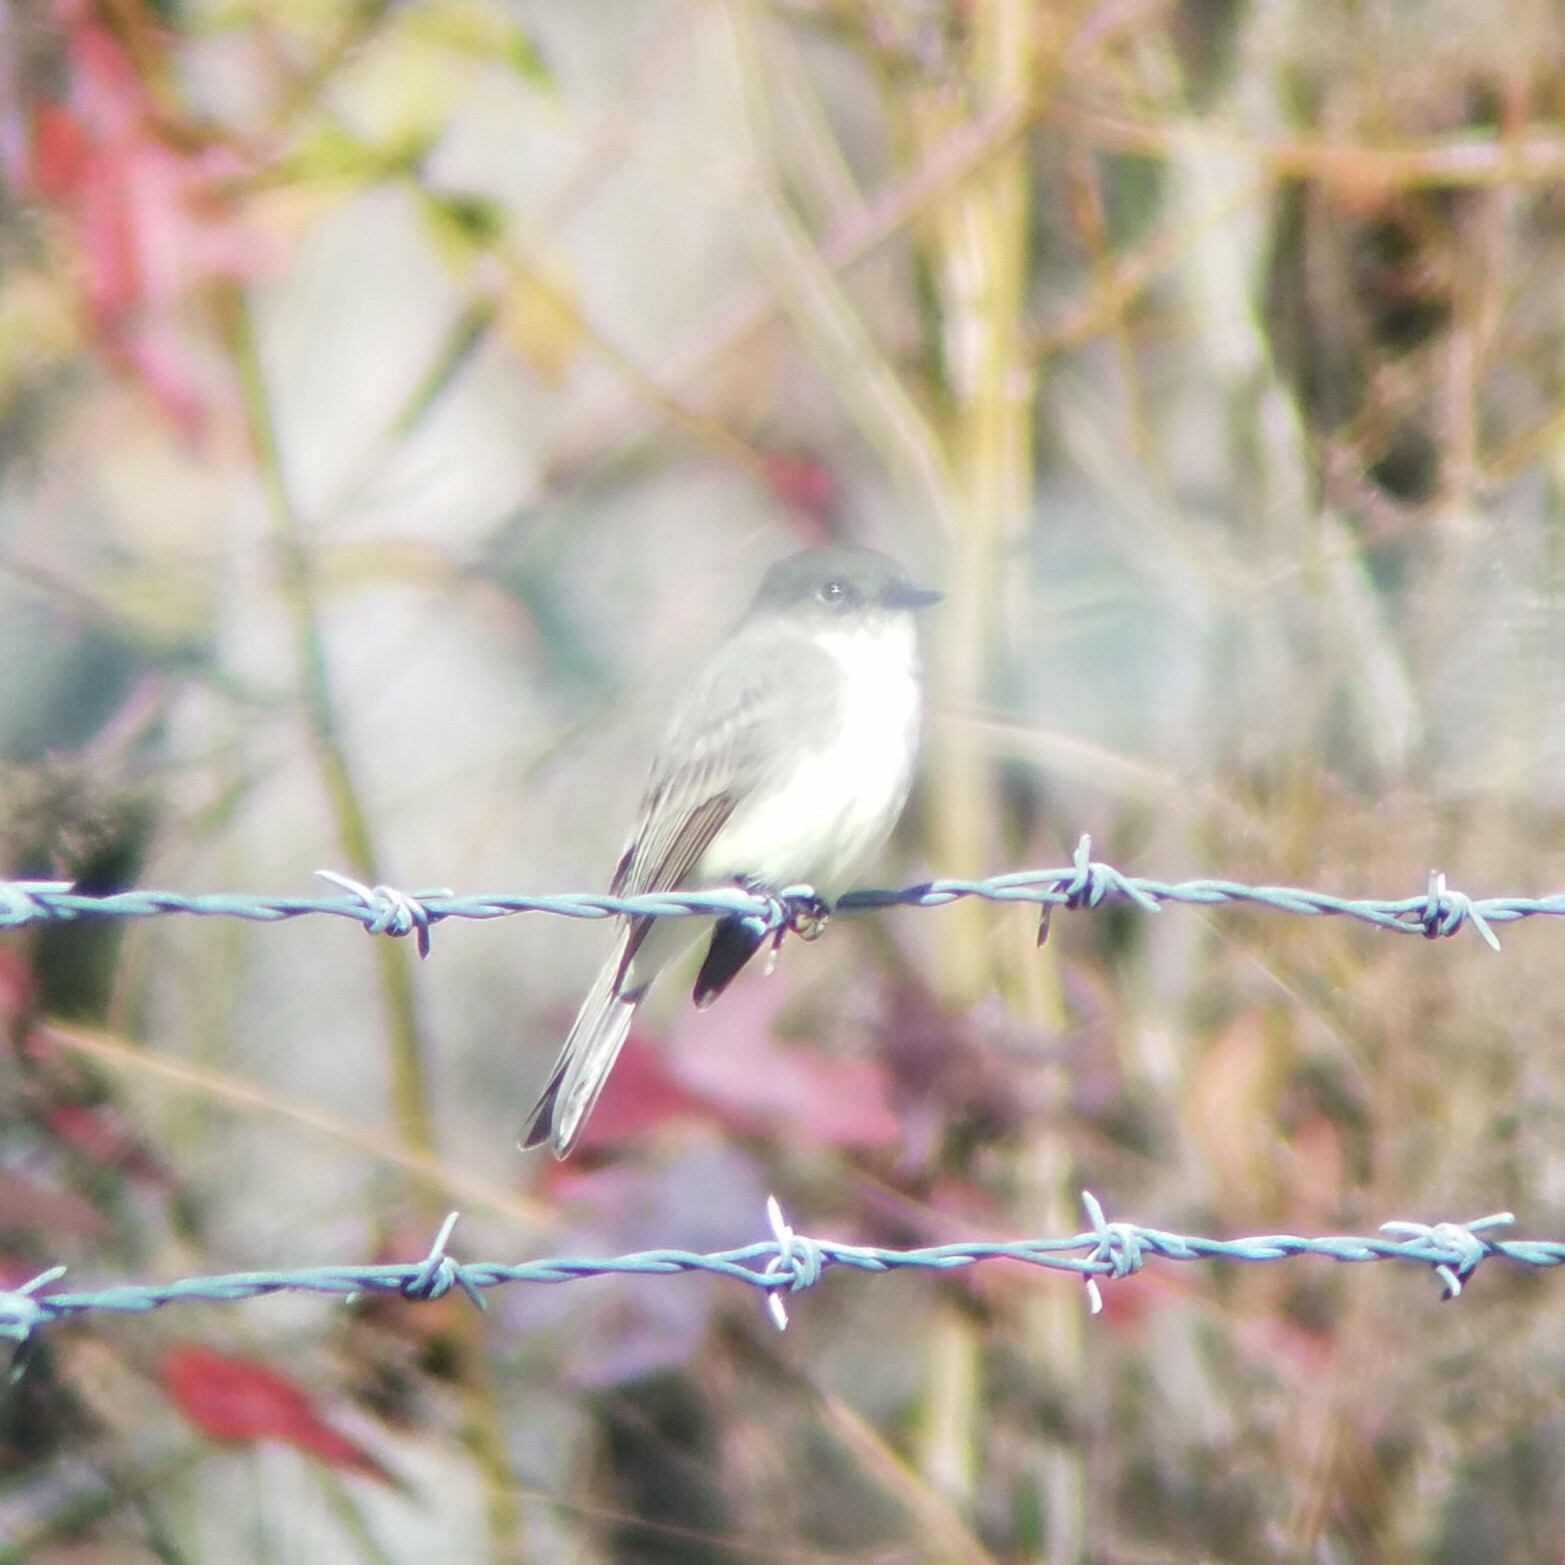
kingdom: Animalia
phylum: Chordata
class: Aves
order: Passeriformes
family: Tyrannidae
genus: Sayornis
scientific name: Sayornis phoebe
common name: Eastern phoebe
